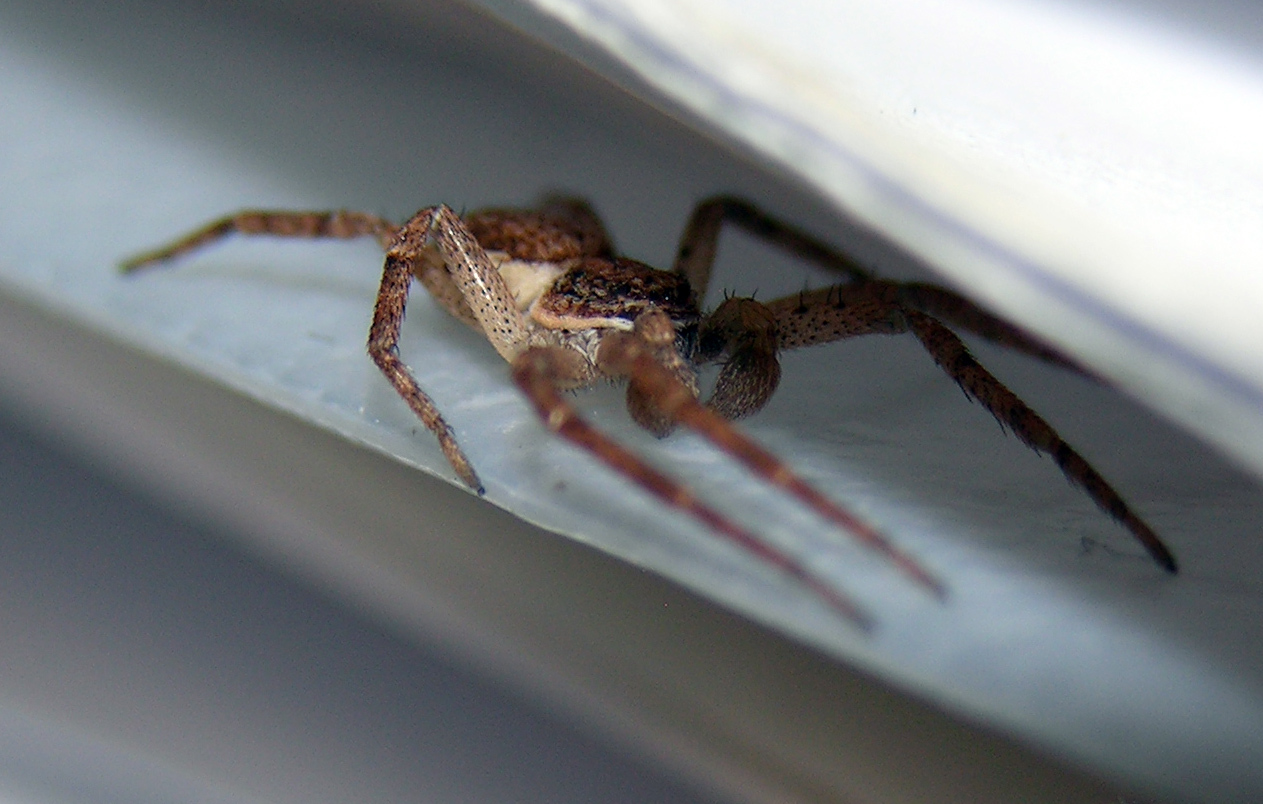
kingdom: Animalia
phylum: Arthropoda
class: Arachnida
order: Araneae
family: Philodromidae
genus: Philodromus
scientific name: Philodromus dispar
